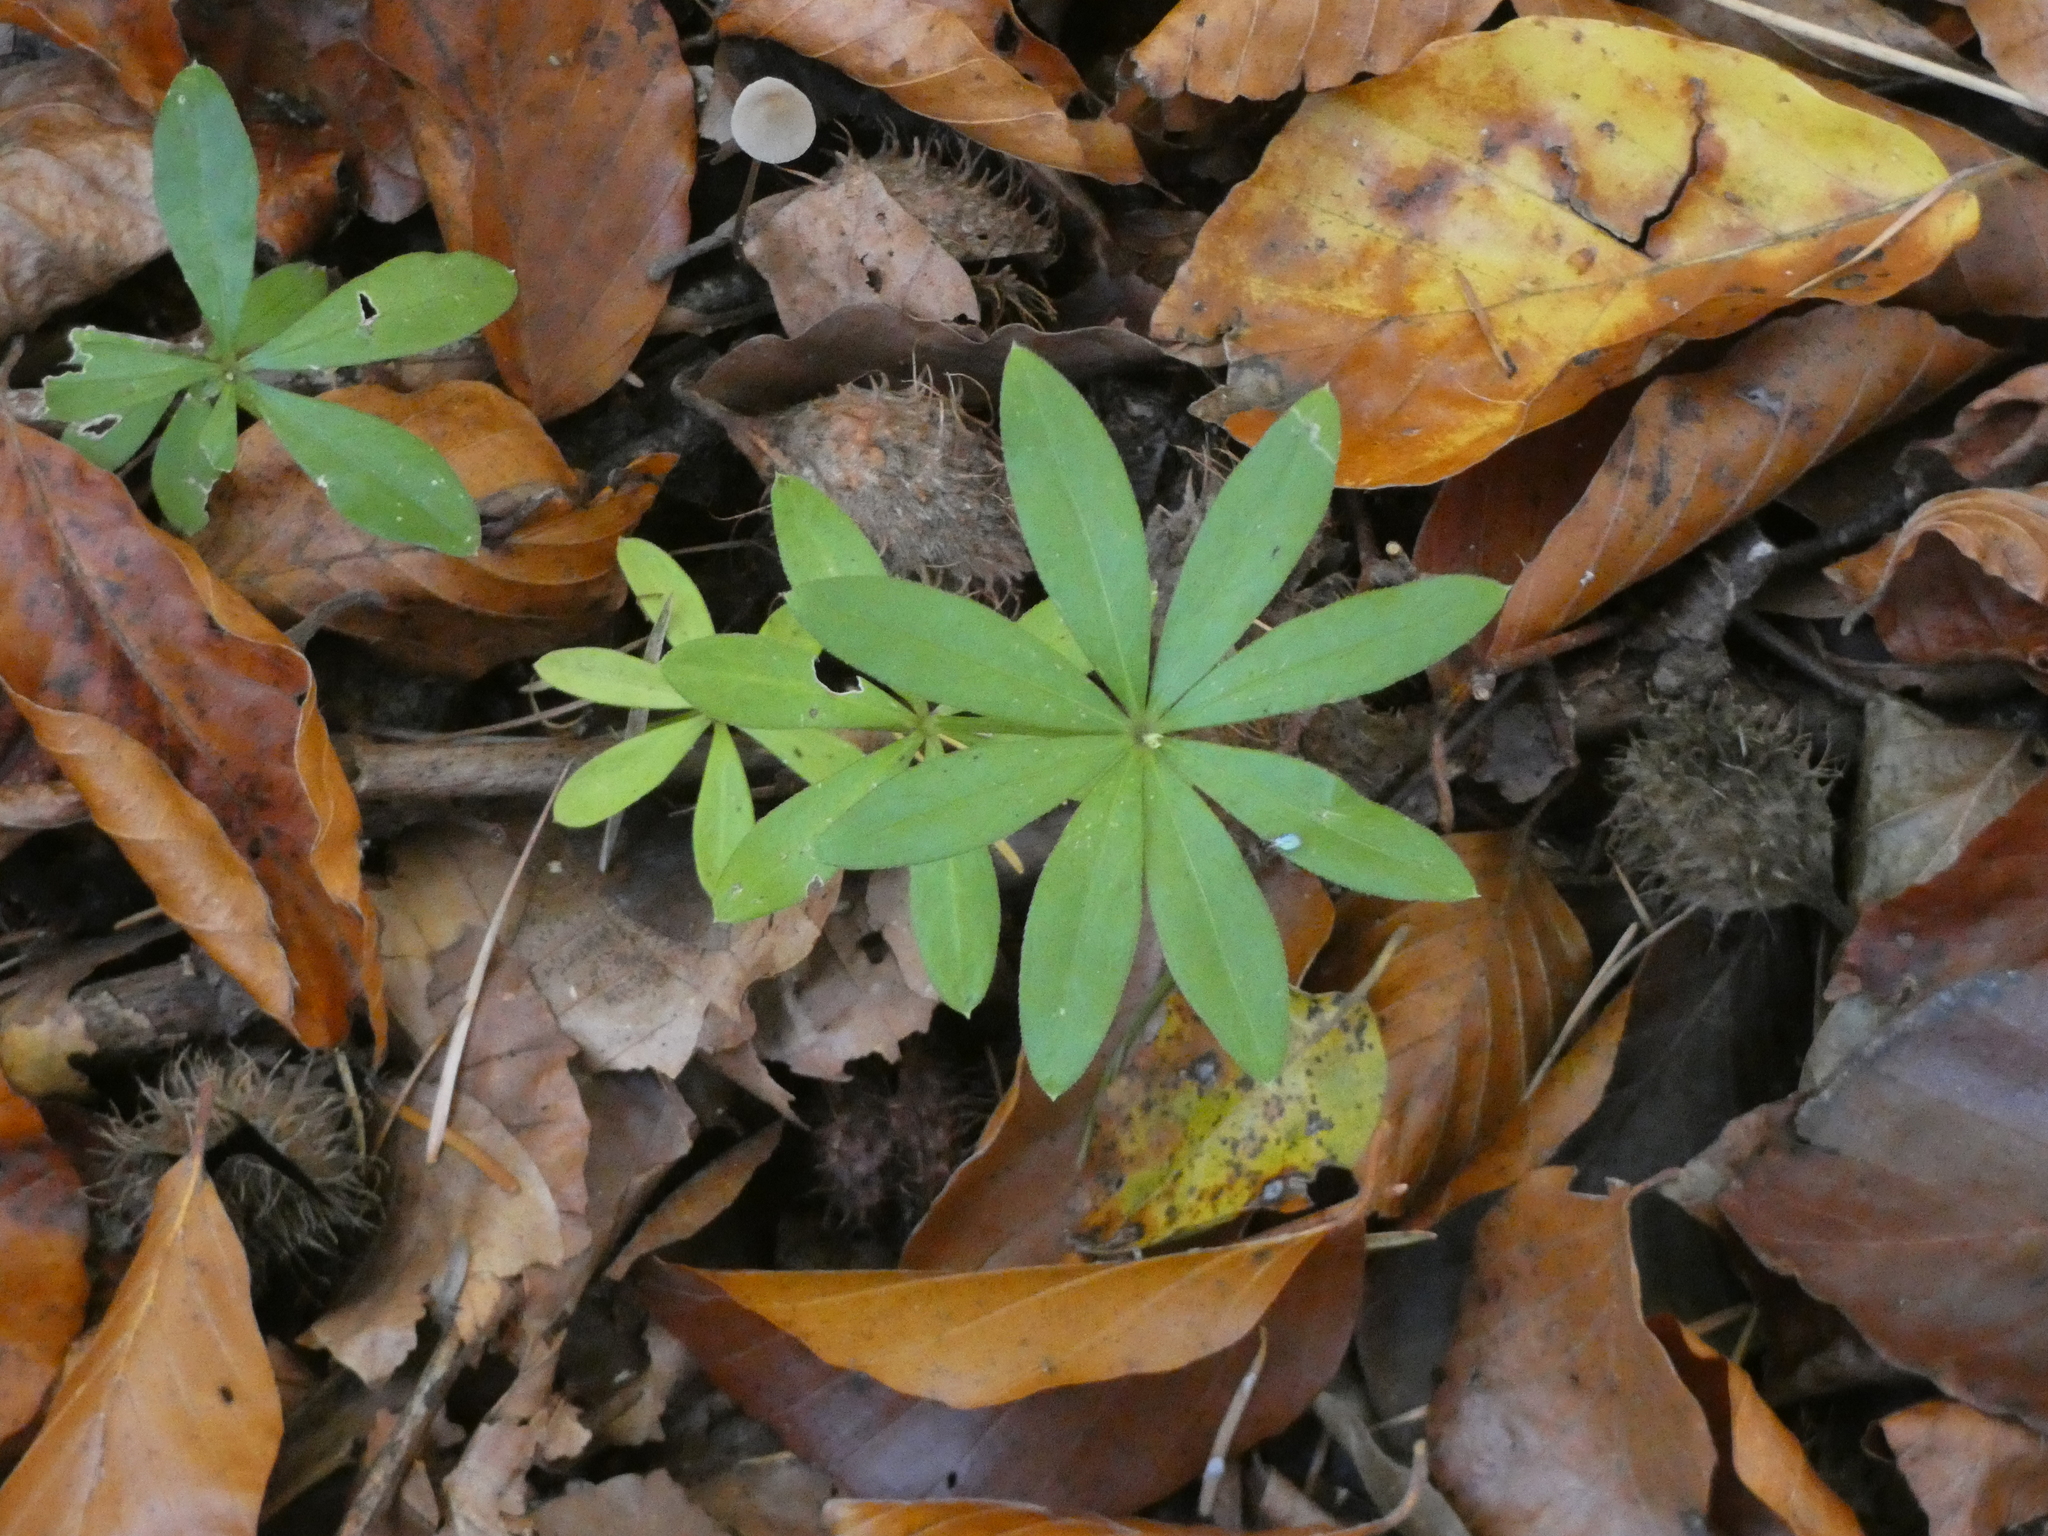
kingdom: Plantae
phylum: Tracheophyta
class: Magnoliopsida
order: Gentianales
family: Rubiaceae
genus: Galium
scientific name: Galium odoratum
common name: Sweet woodruff
